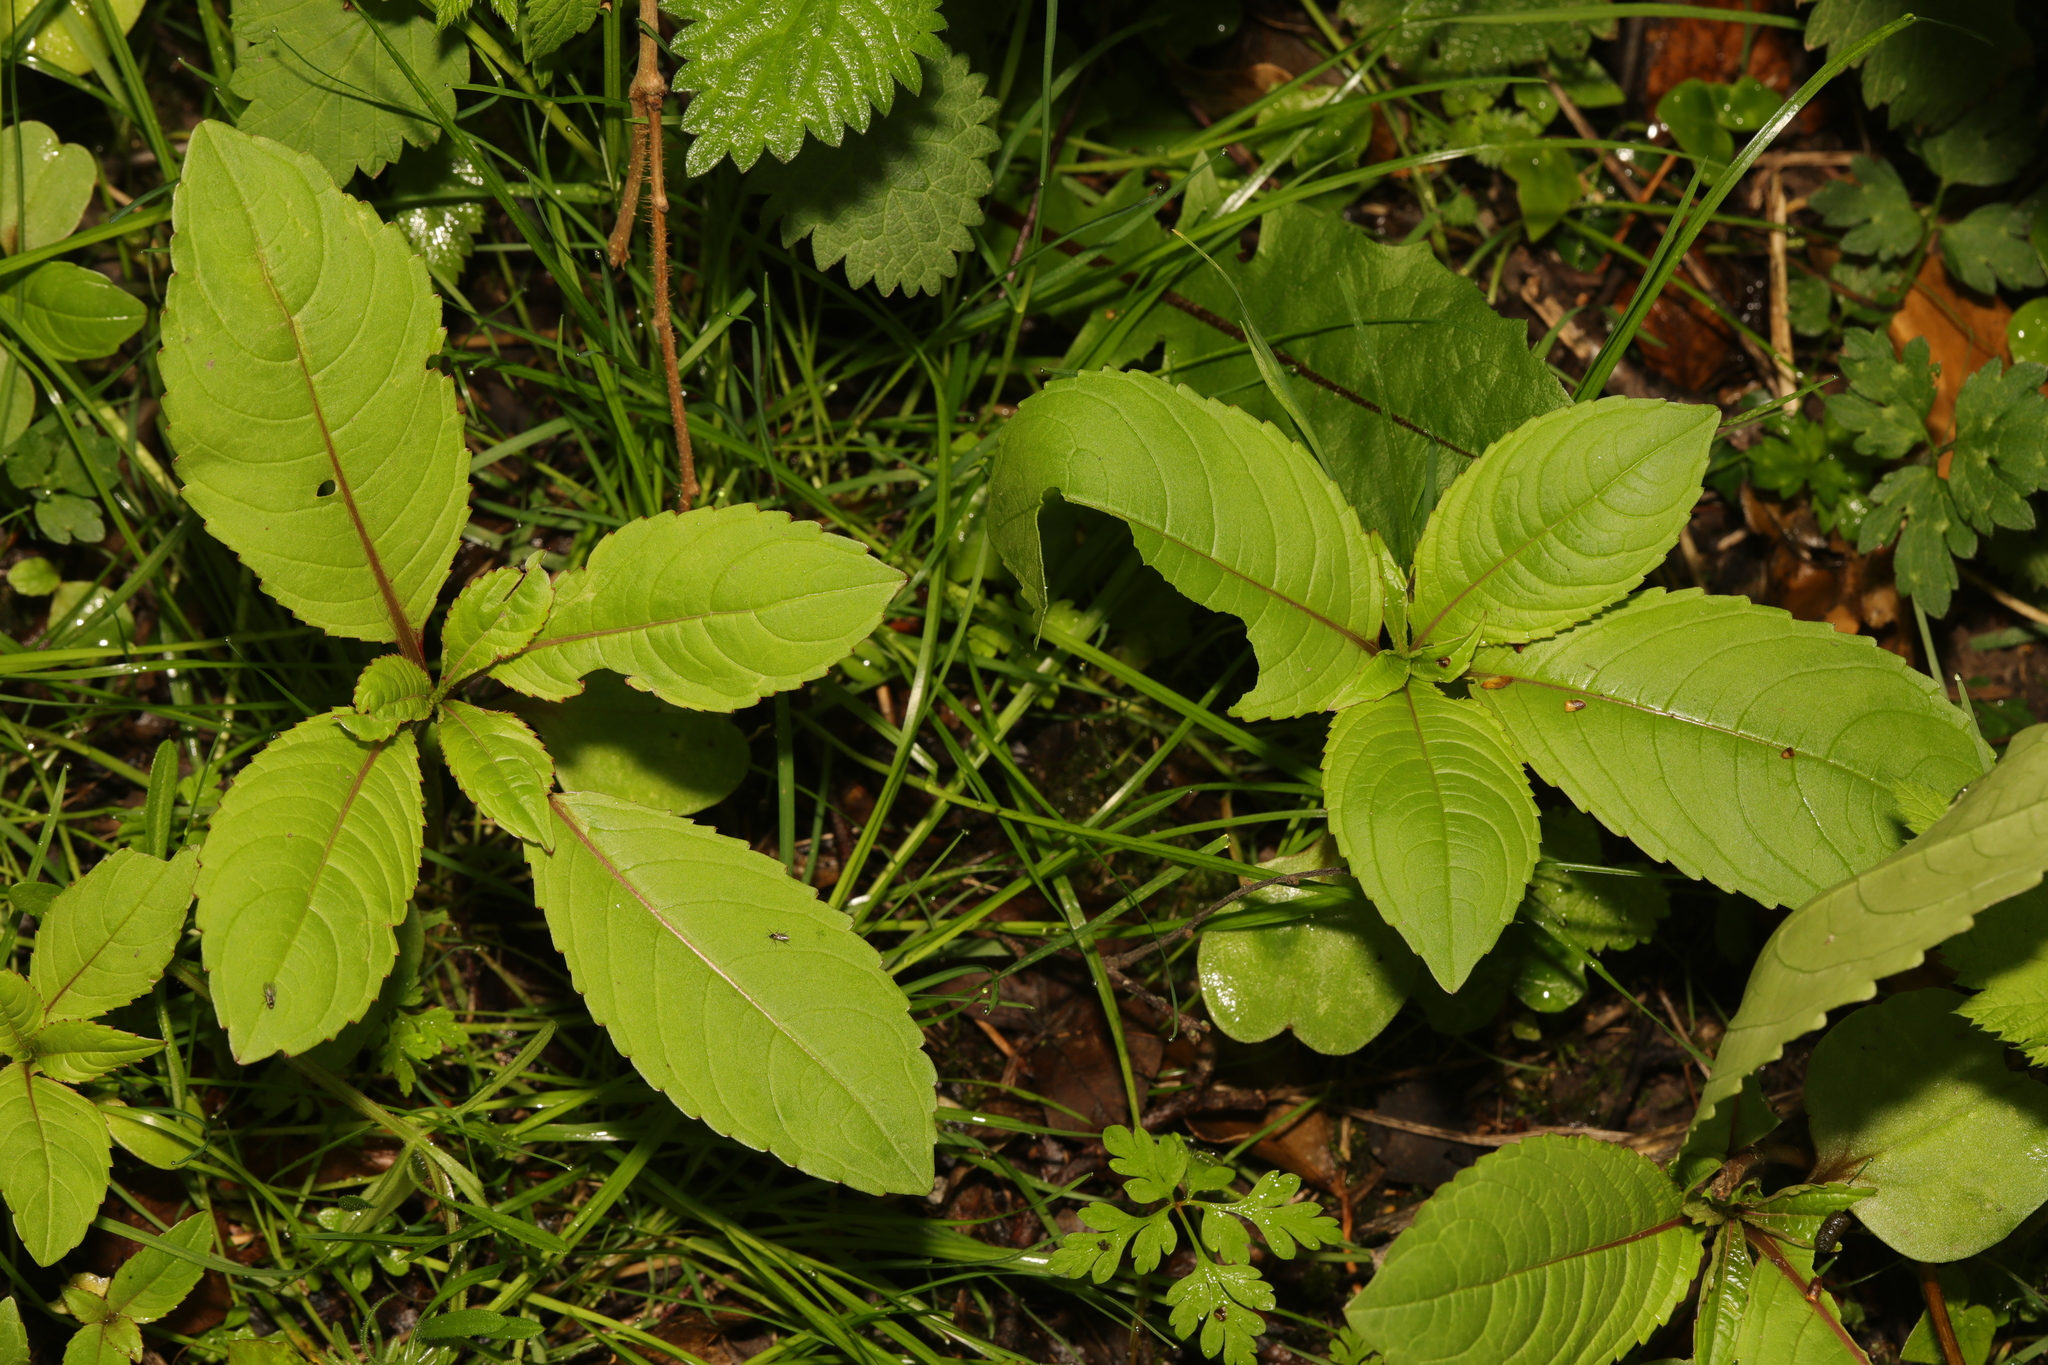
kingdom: Plantae
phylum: Tracheophyta
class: Magnoliopsida
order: Ericales
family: Balsaminaceae
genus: Impatiens
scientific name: Impatiens glandulifera
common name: Himalayan balsam
